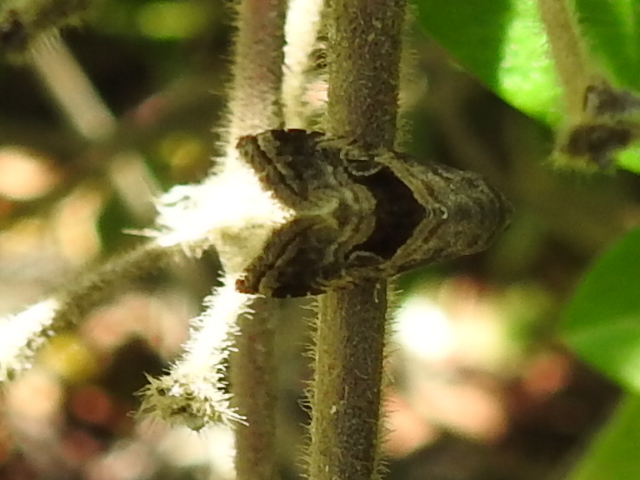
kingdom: Animalia
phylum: Arthropoda
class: Insecta
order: Lepidoptera
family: Noctuidae
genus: Tripudia
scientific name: Tripudia quadrifera
